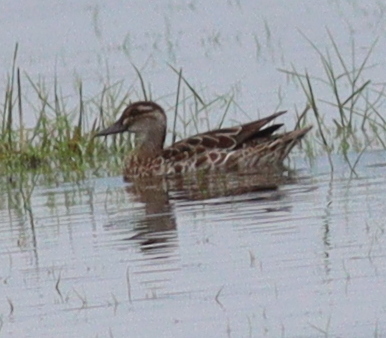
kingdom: Animalia
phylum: Chordata
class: Aves
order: Anseriformes
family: Anatidae
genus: Spatula
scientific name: Spatula querquedula
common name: Garganey
